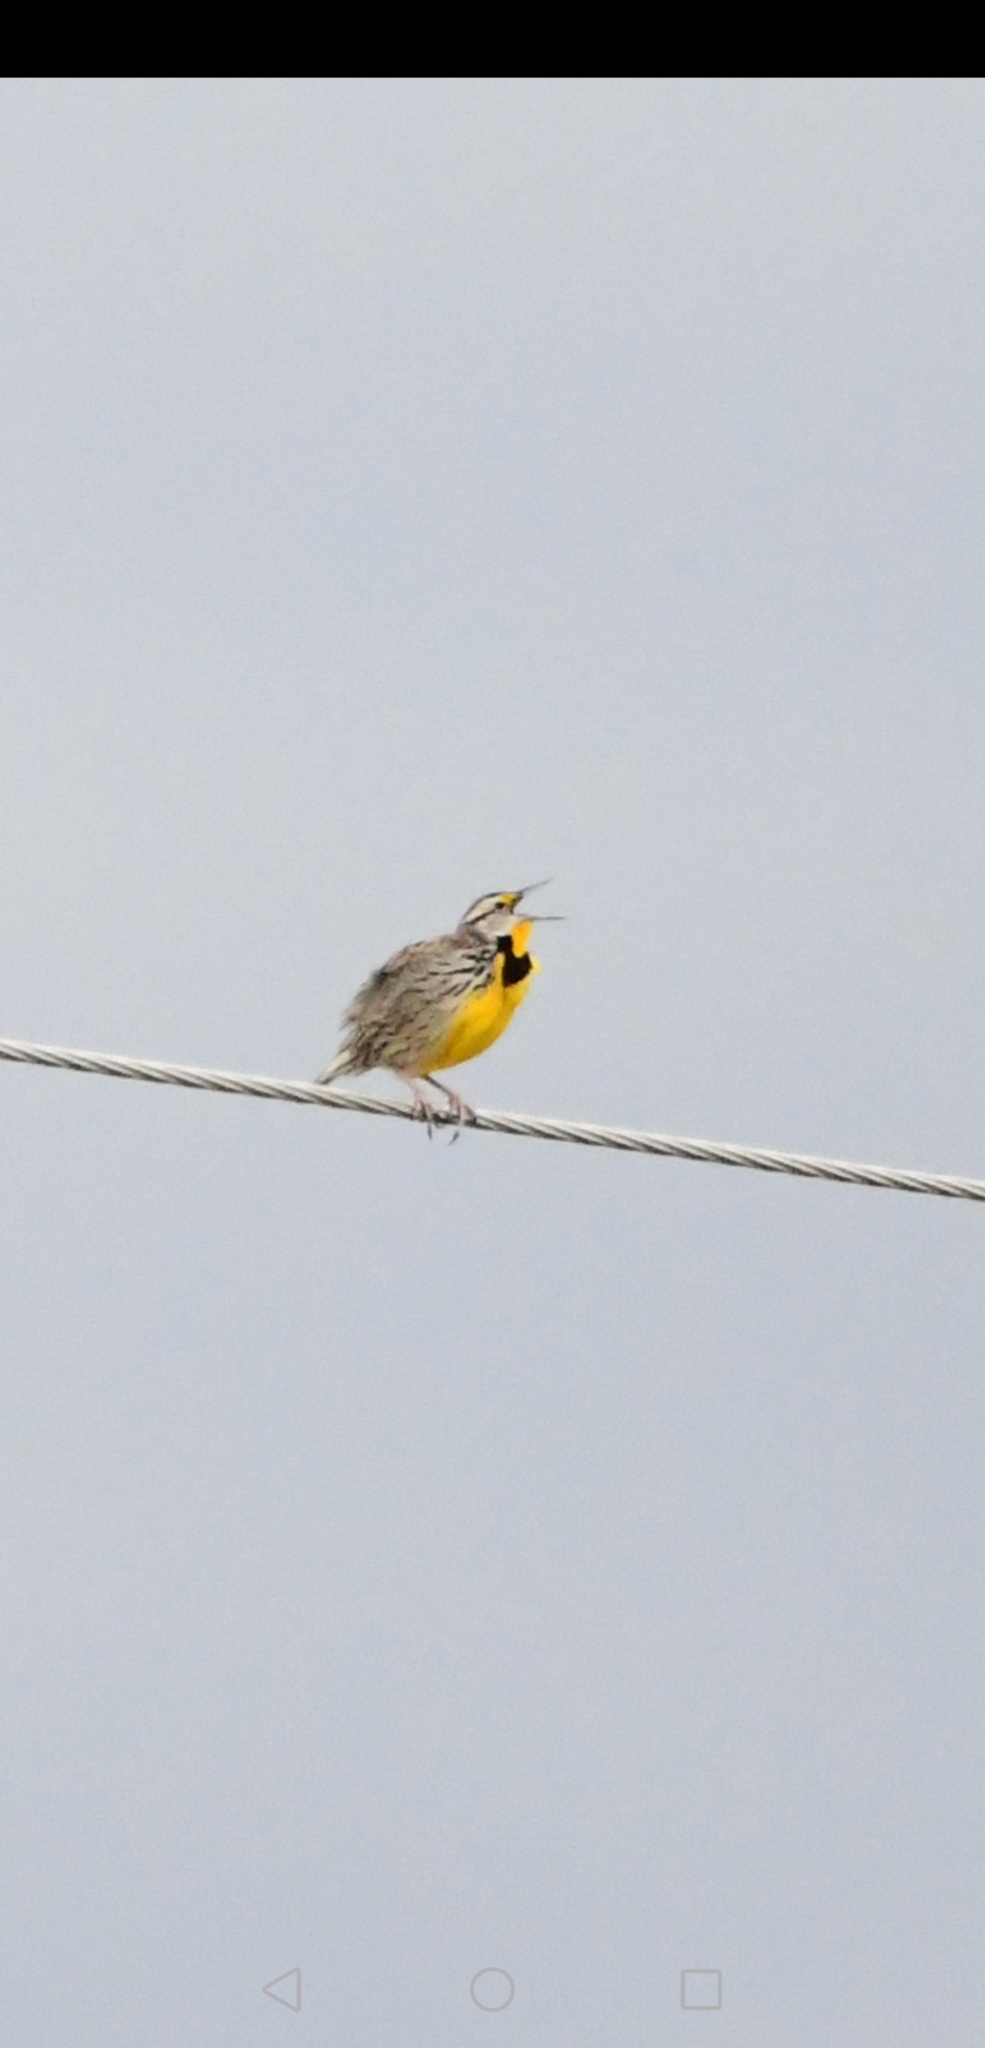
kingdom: Animalia
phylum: Chordata
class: Aves
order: Passeriformes
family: Icteridae
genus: Sturnella
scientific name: Sturnella magna
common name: Eastern meadowlark
